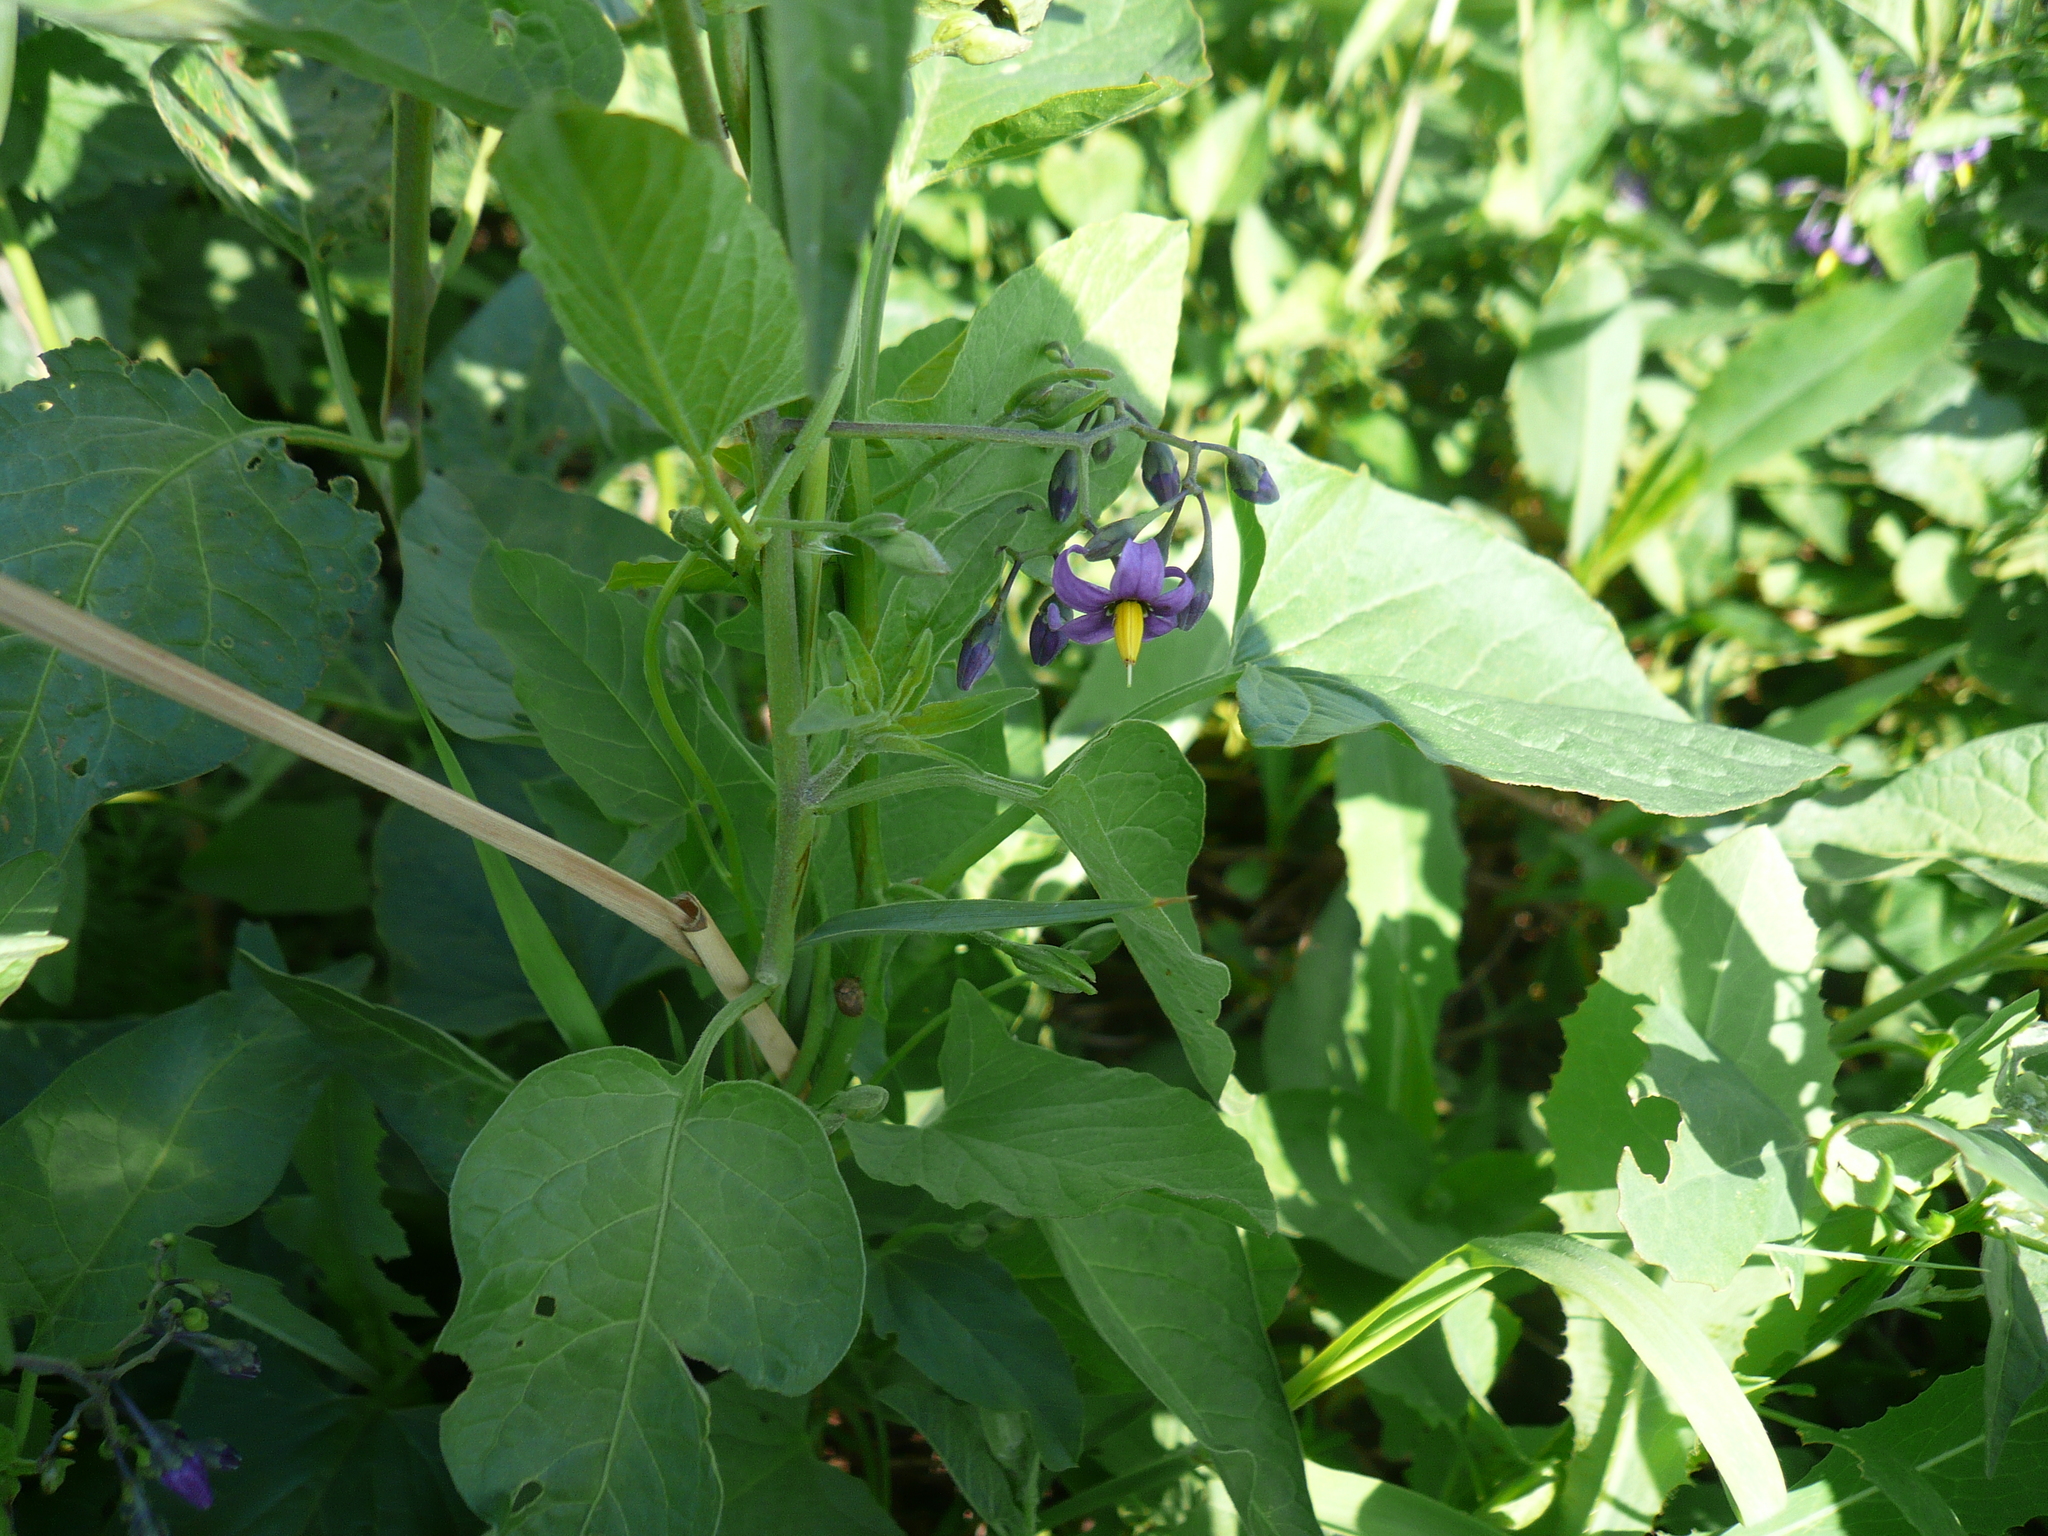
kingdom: Plantae
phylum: Tracheophyta
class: Magnoliopsida
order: Solanales
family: Solanaceae
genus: Solanum
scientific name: Solanum dulcamara
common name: Climbing nightshade
